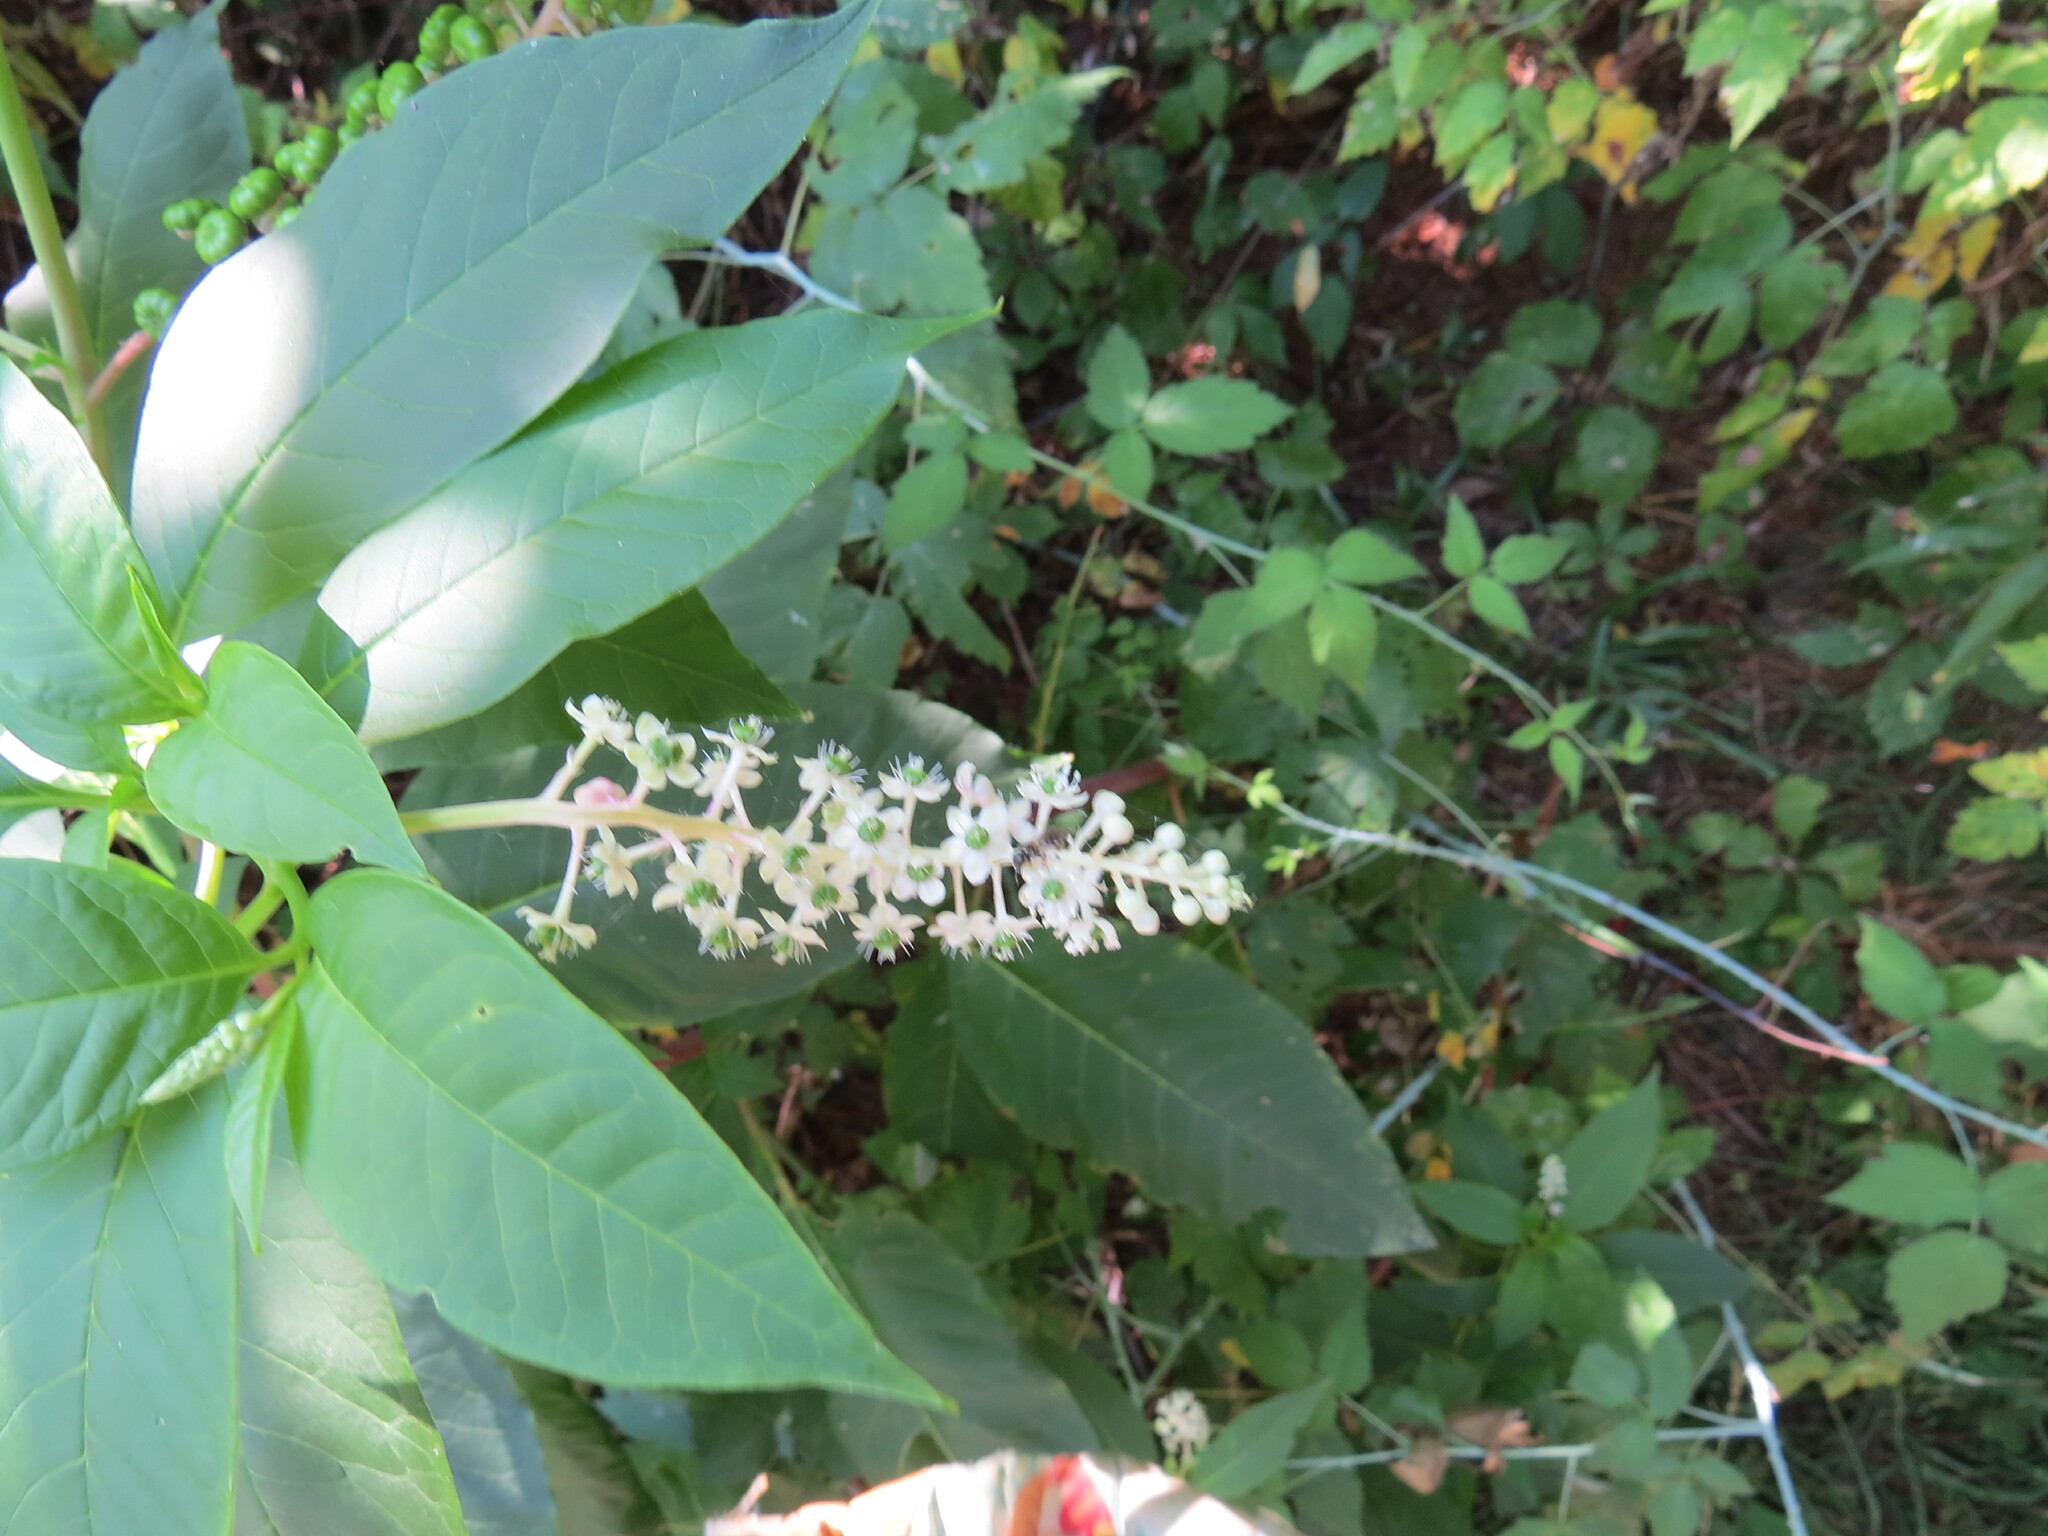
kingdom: Plantae
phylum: Tracheophyta
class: Magnoliopsida
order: Caryophyllales
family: Phytolaccaceae
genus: Phytolacca
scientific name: Phytolacca americana
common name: American pokeweed
